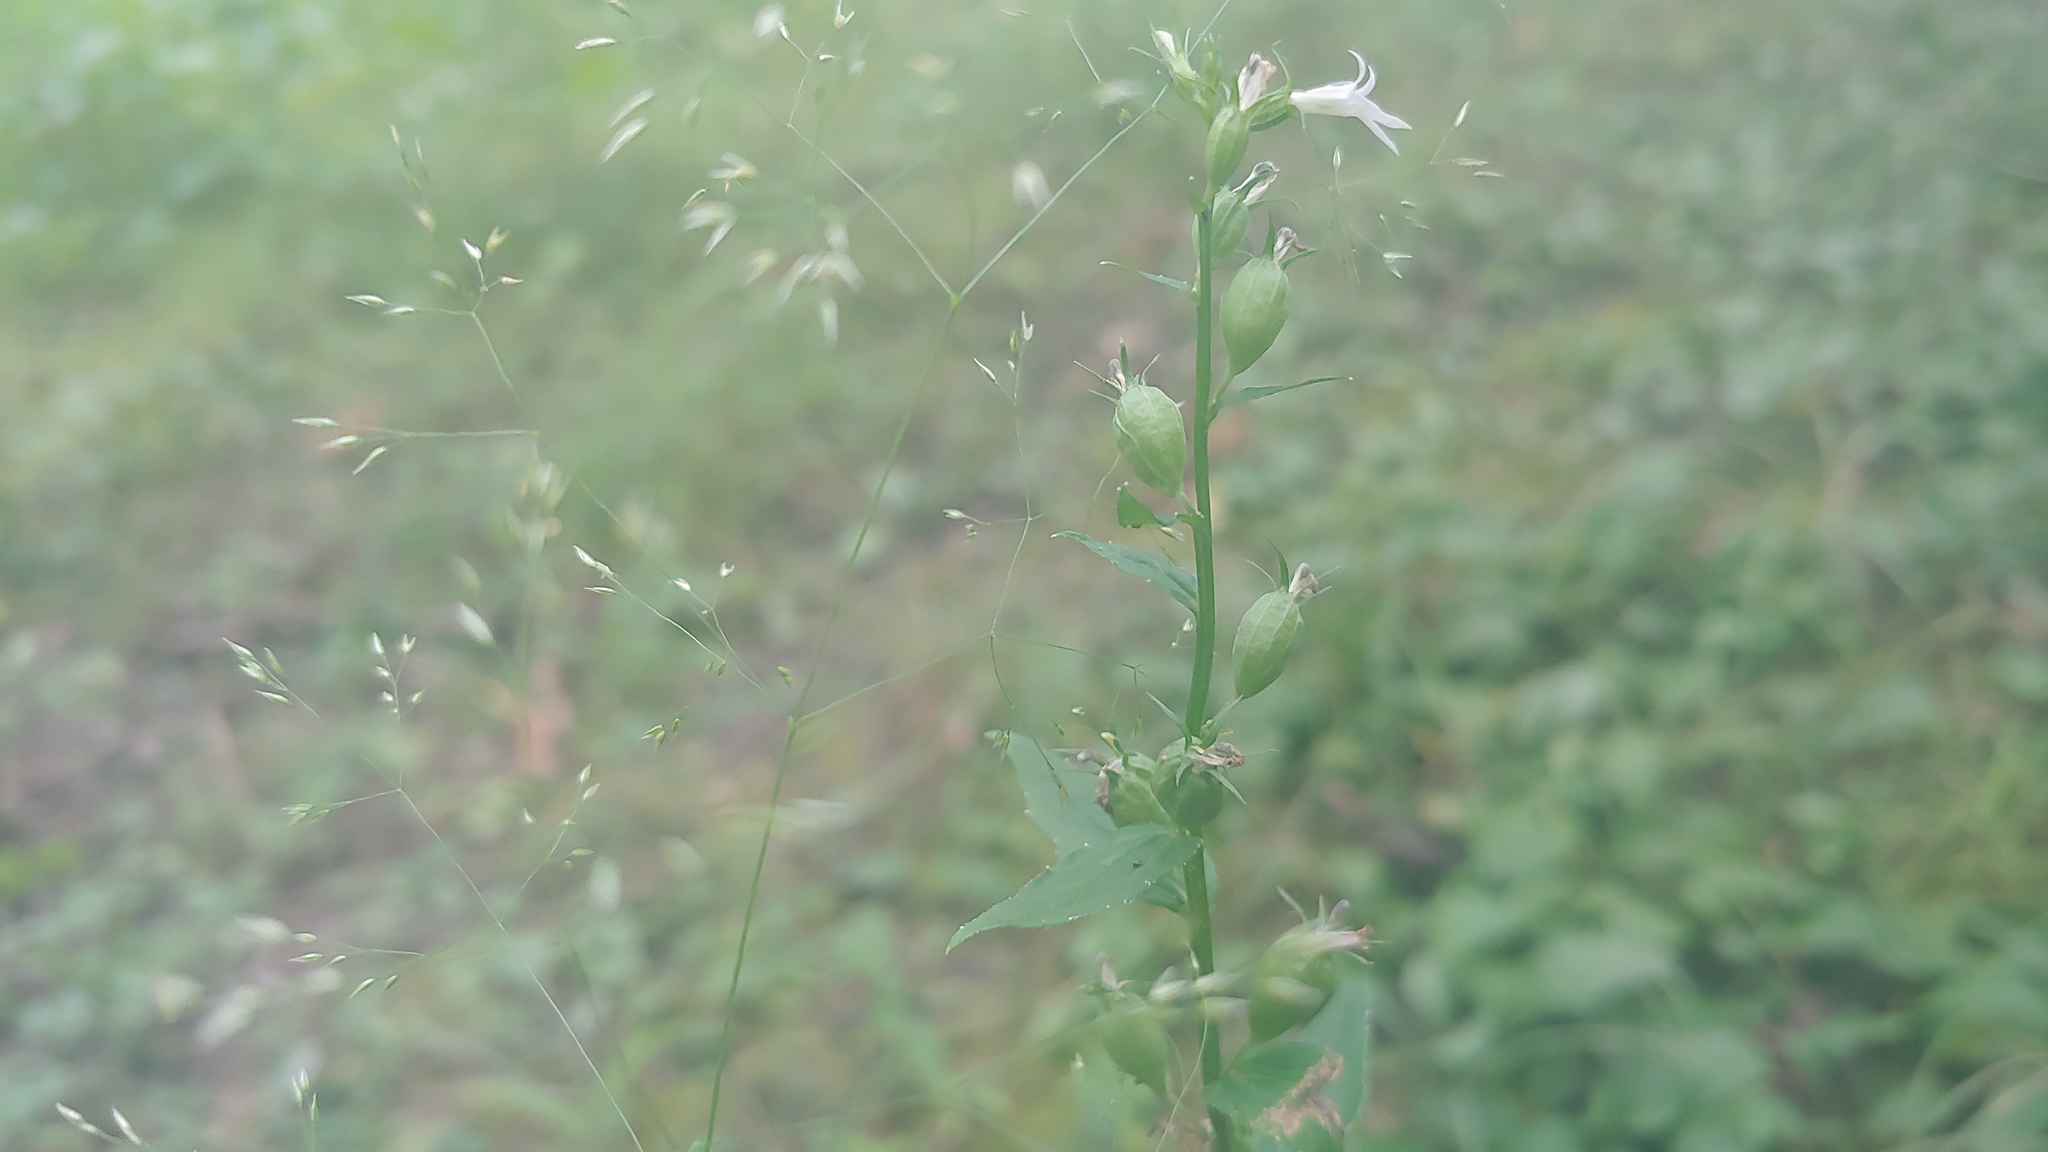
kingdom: Plantae
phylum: Tracheophyta
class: Magnoliopsida
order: Asterales
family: Campanulaceae
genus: Lobelia
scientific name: Lobelia inflata
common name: Indian tobacco
